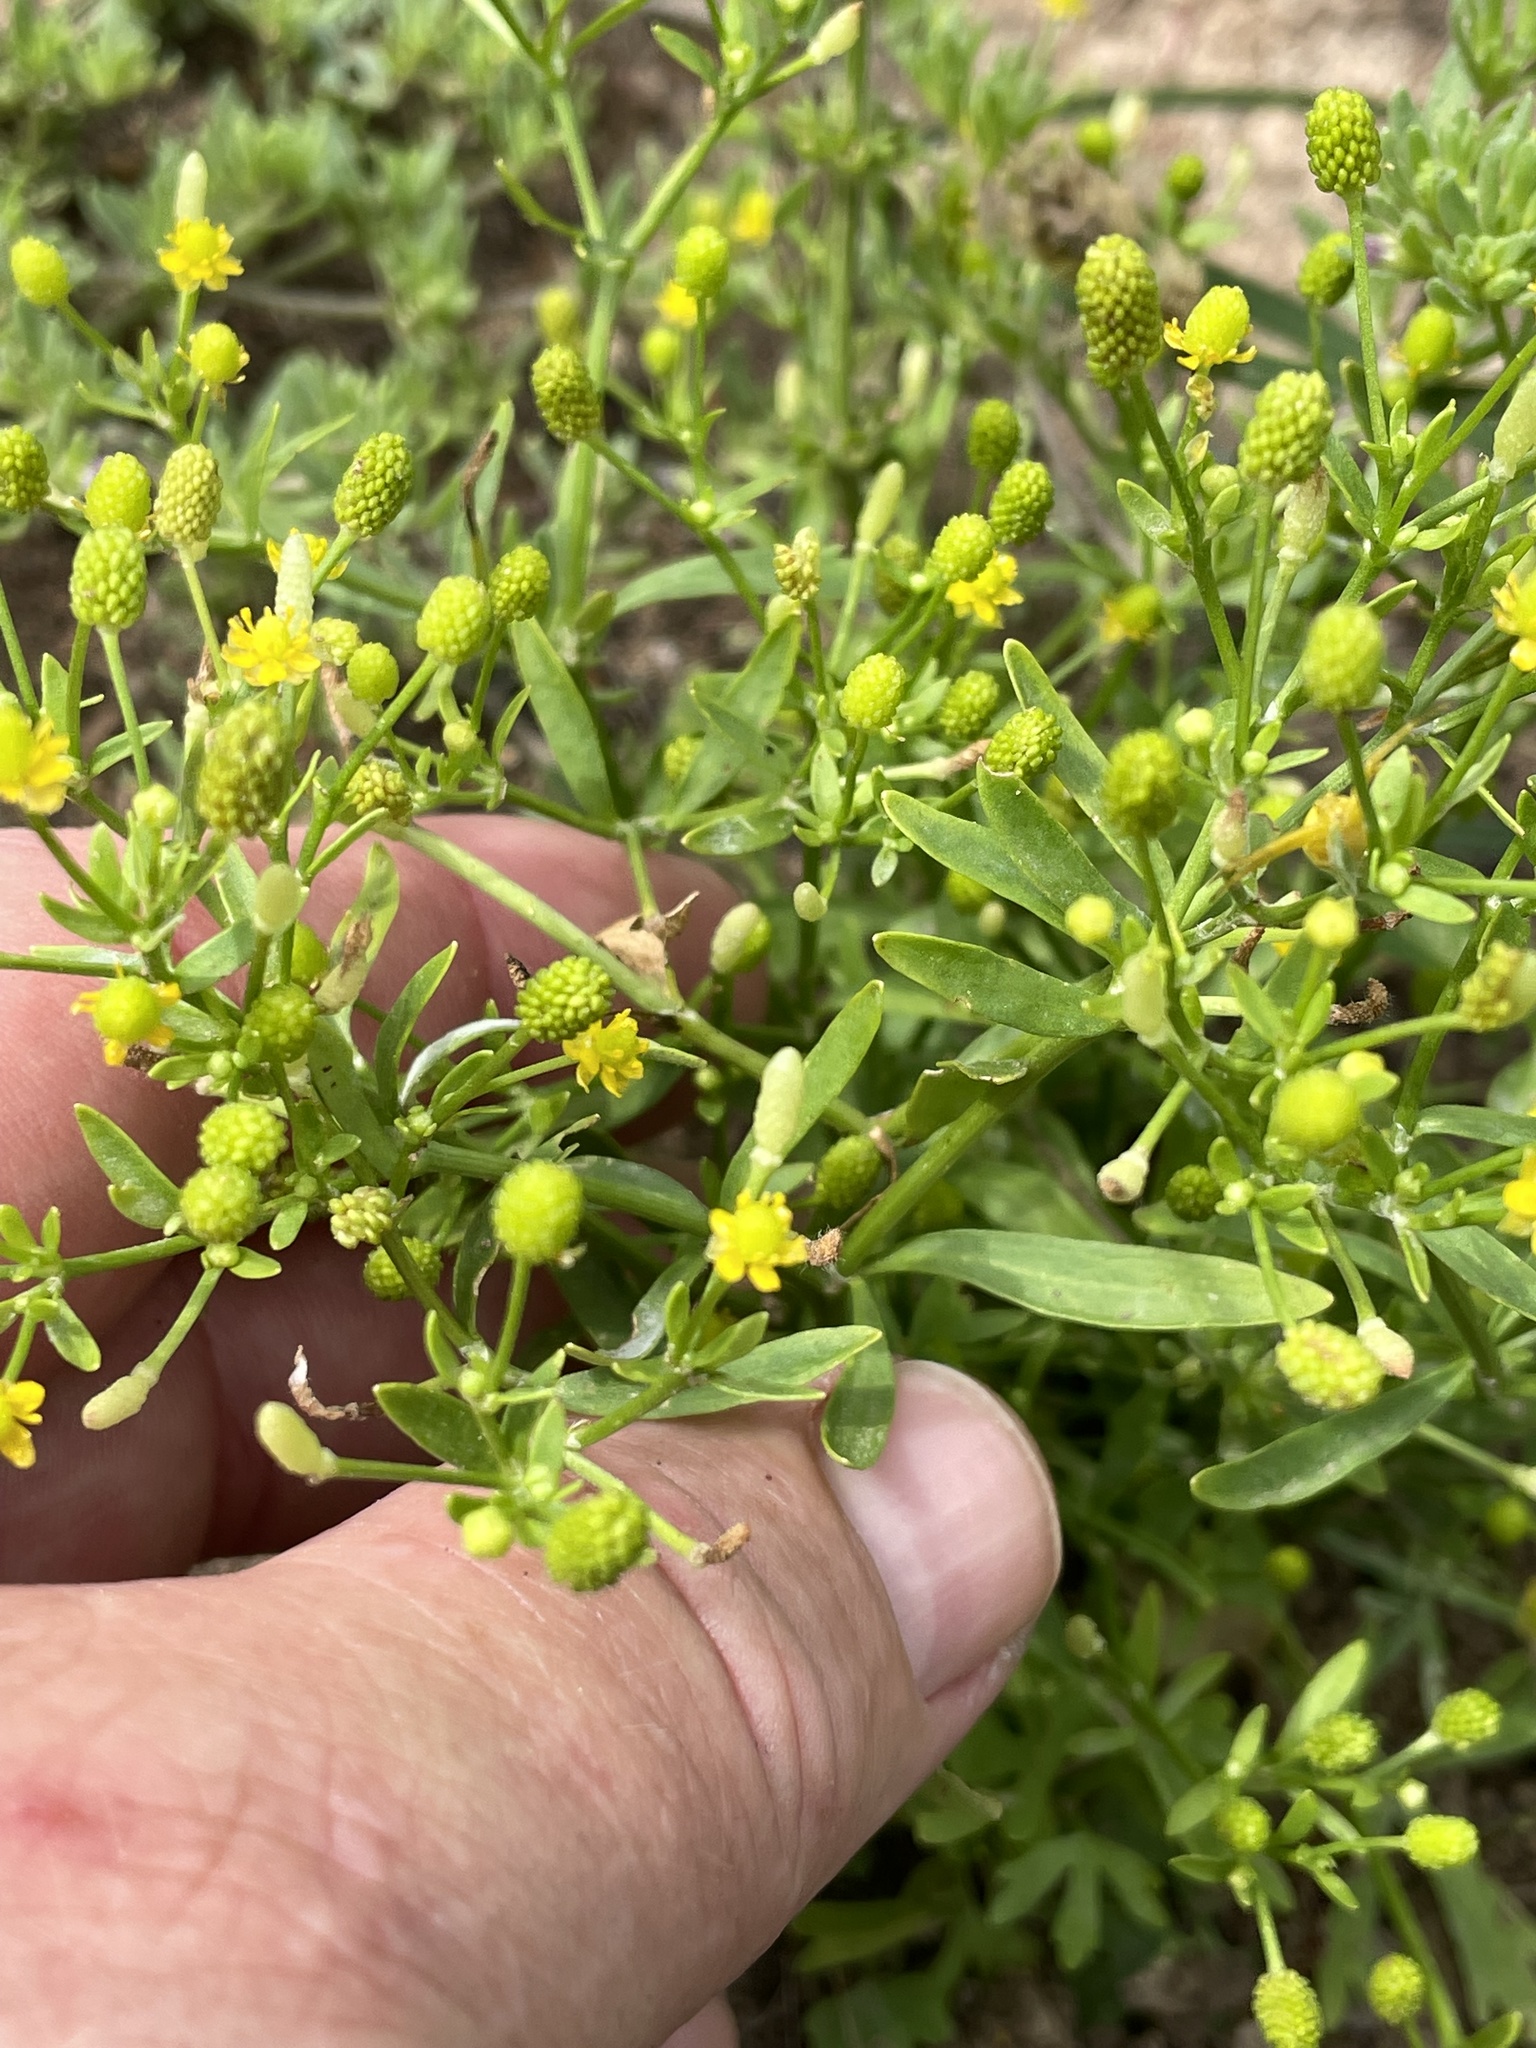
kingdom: Plantae
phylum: Tracheophyta
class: Magnoliopsida
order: Ranunculales
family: Ranunculaceae
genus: Ranunculus
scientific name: Ranunculus sceleratus
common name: Celery-leaved buttercup
